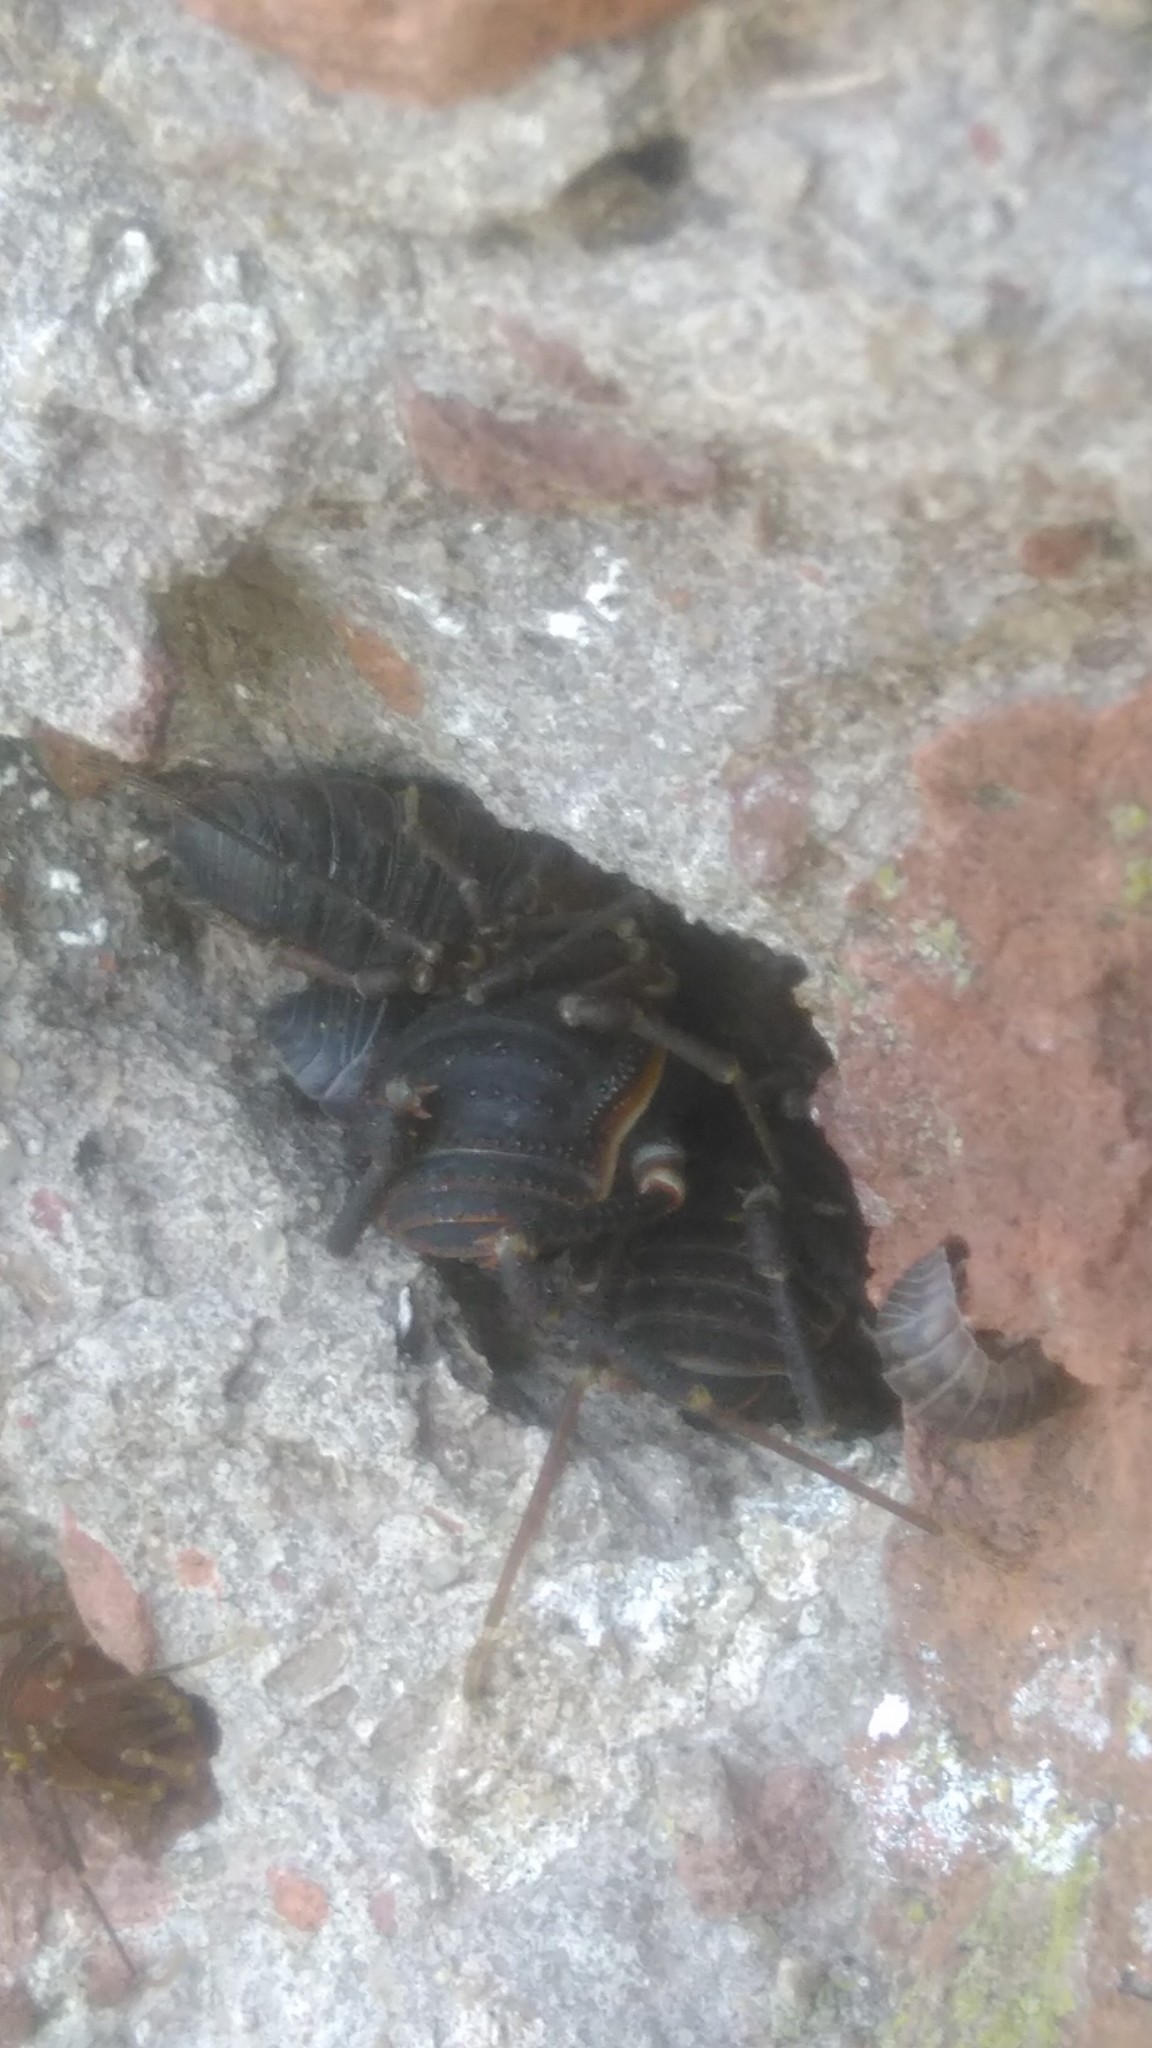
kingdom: Animalia
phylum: Arthropoda
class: Arachnida
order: Opiliones
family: Gonyleptidae
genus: Acanthopachylus
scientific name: Acanthopachylus robustus
